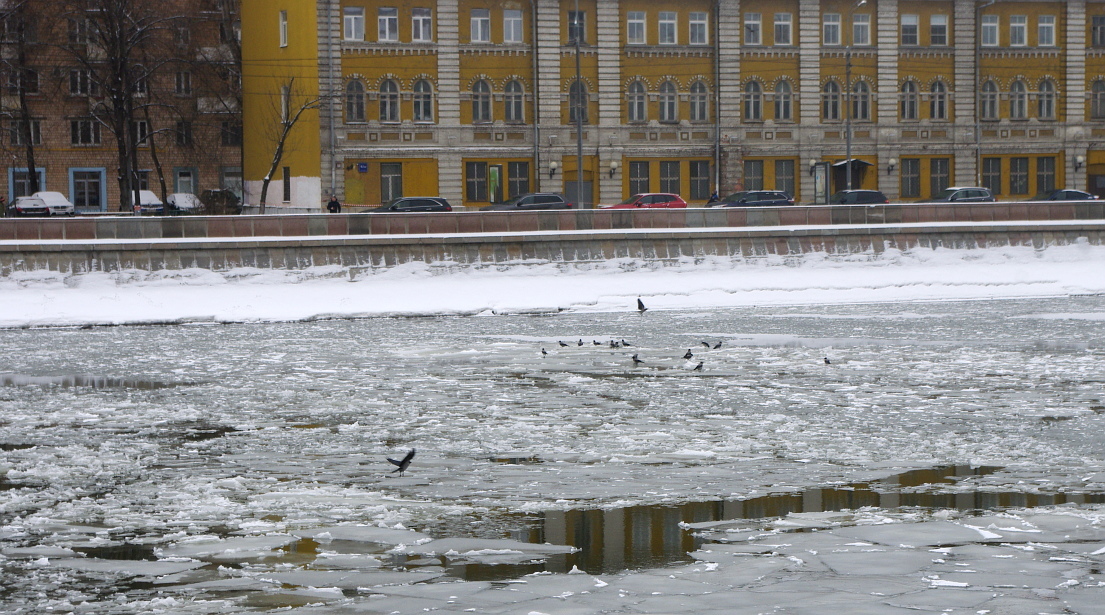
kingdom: Animalia
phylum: Chordata
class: Aves
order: Passeriformes
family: Corvidae
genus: Corvus
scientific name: Corvus cornix
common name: Hooded crow
